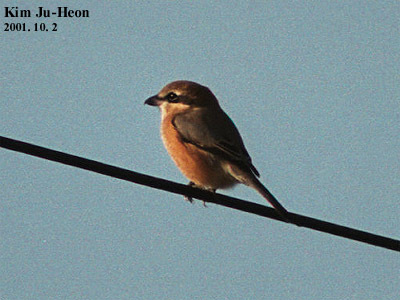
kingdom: Animalia
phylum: Chordata
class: Aves
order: Passeriformes
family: Laniidae
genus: Lanius
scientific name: Lanius bucephalus
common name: Bull-headed shrike
